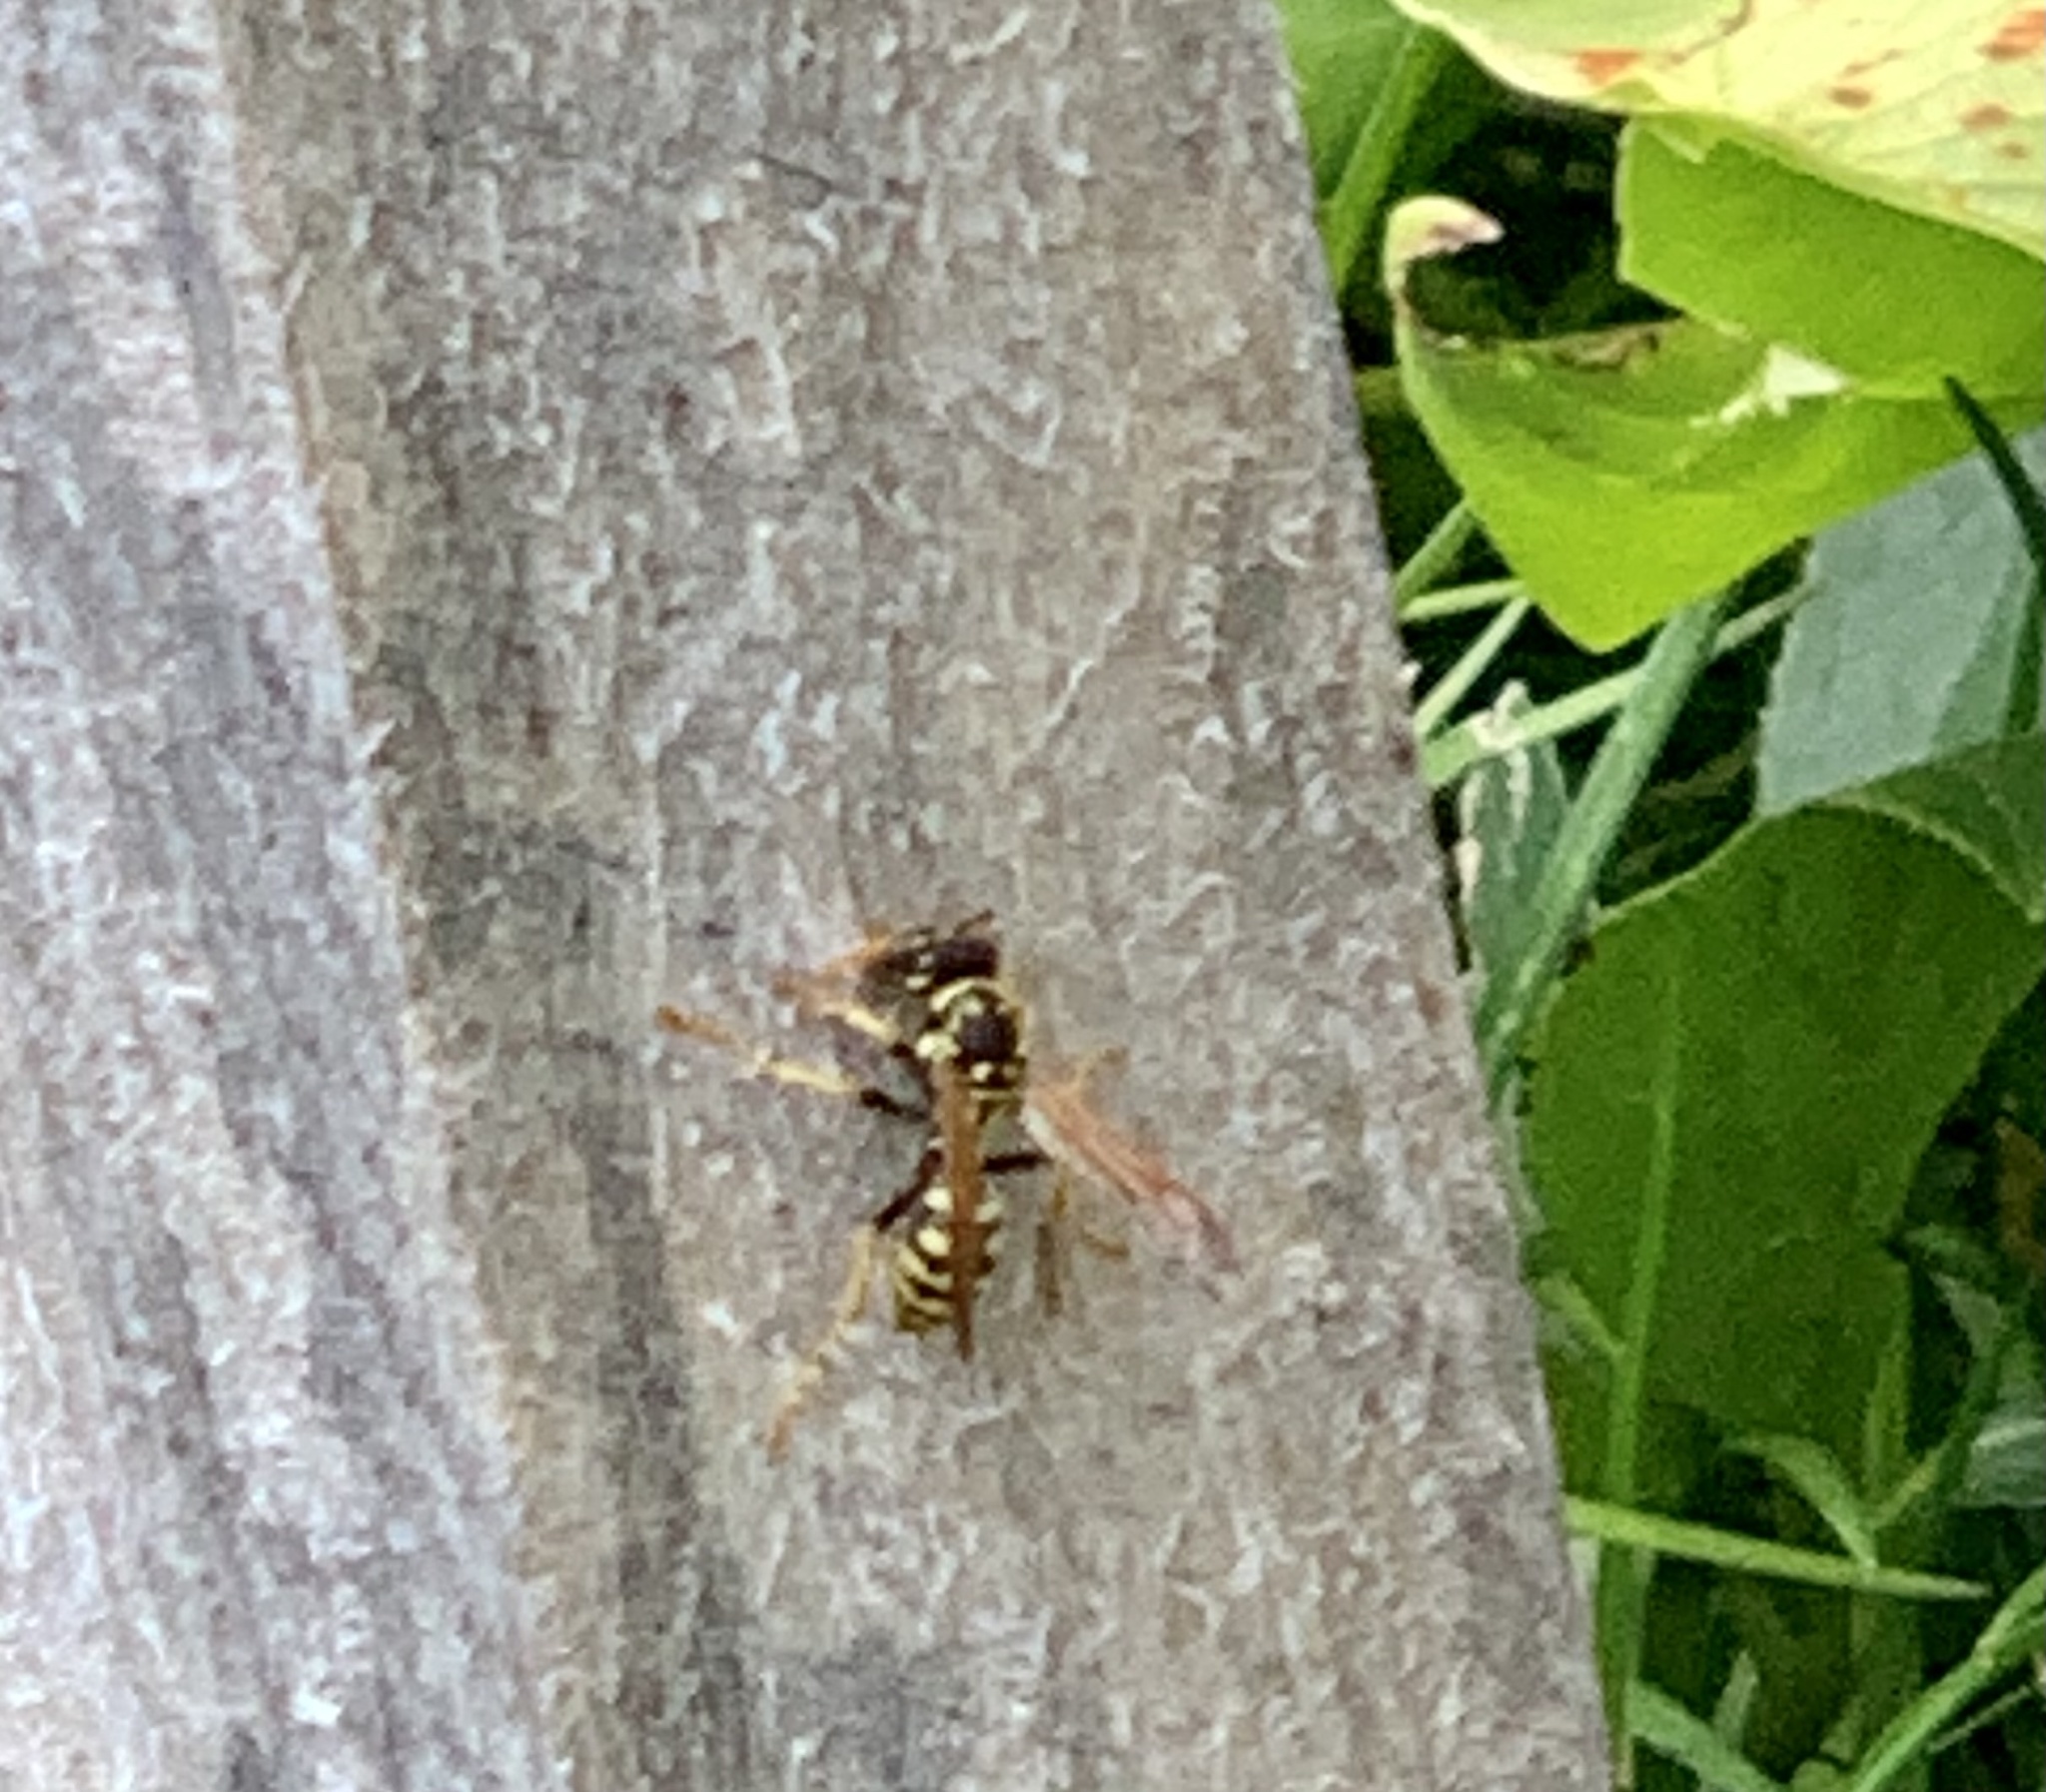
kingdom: Animalia
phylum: Arthropoda
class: Insecta
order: Hymenoptera
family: Eumenidae
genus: Polistes
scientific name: Polistes dominula
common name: Paper wasp
